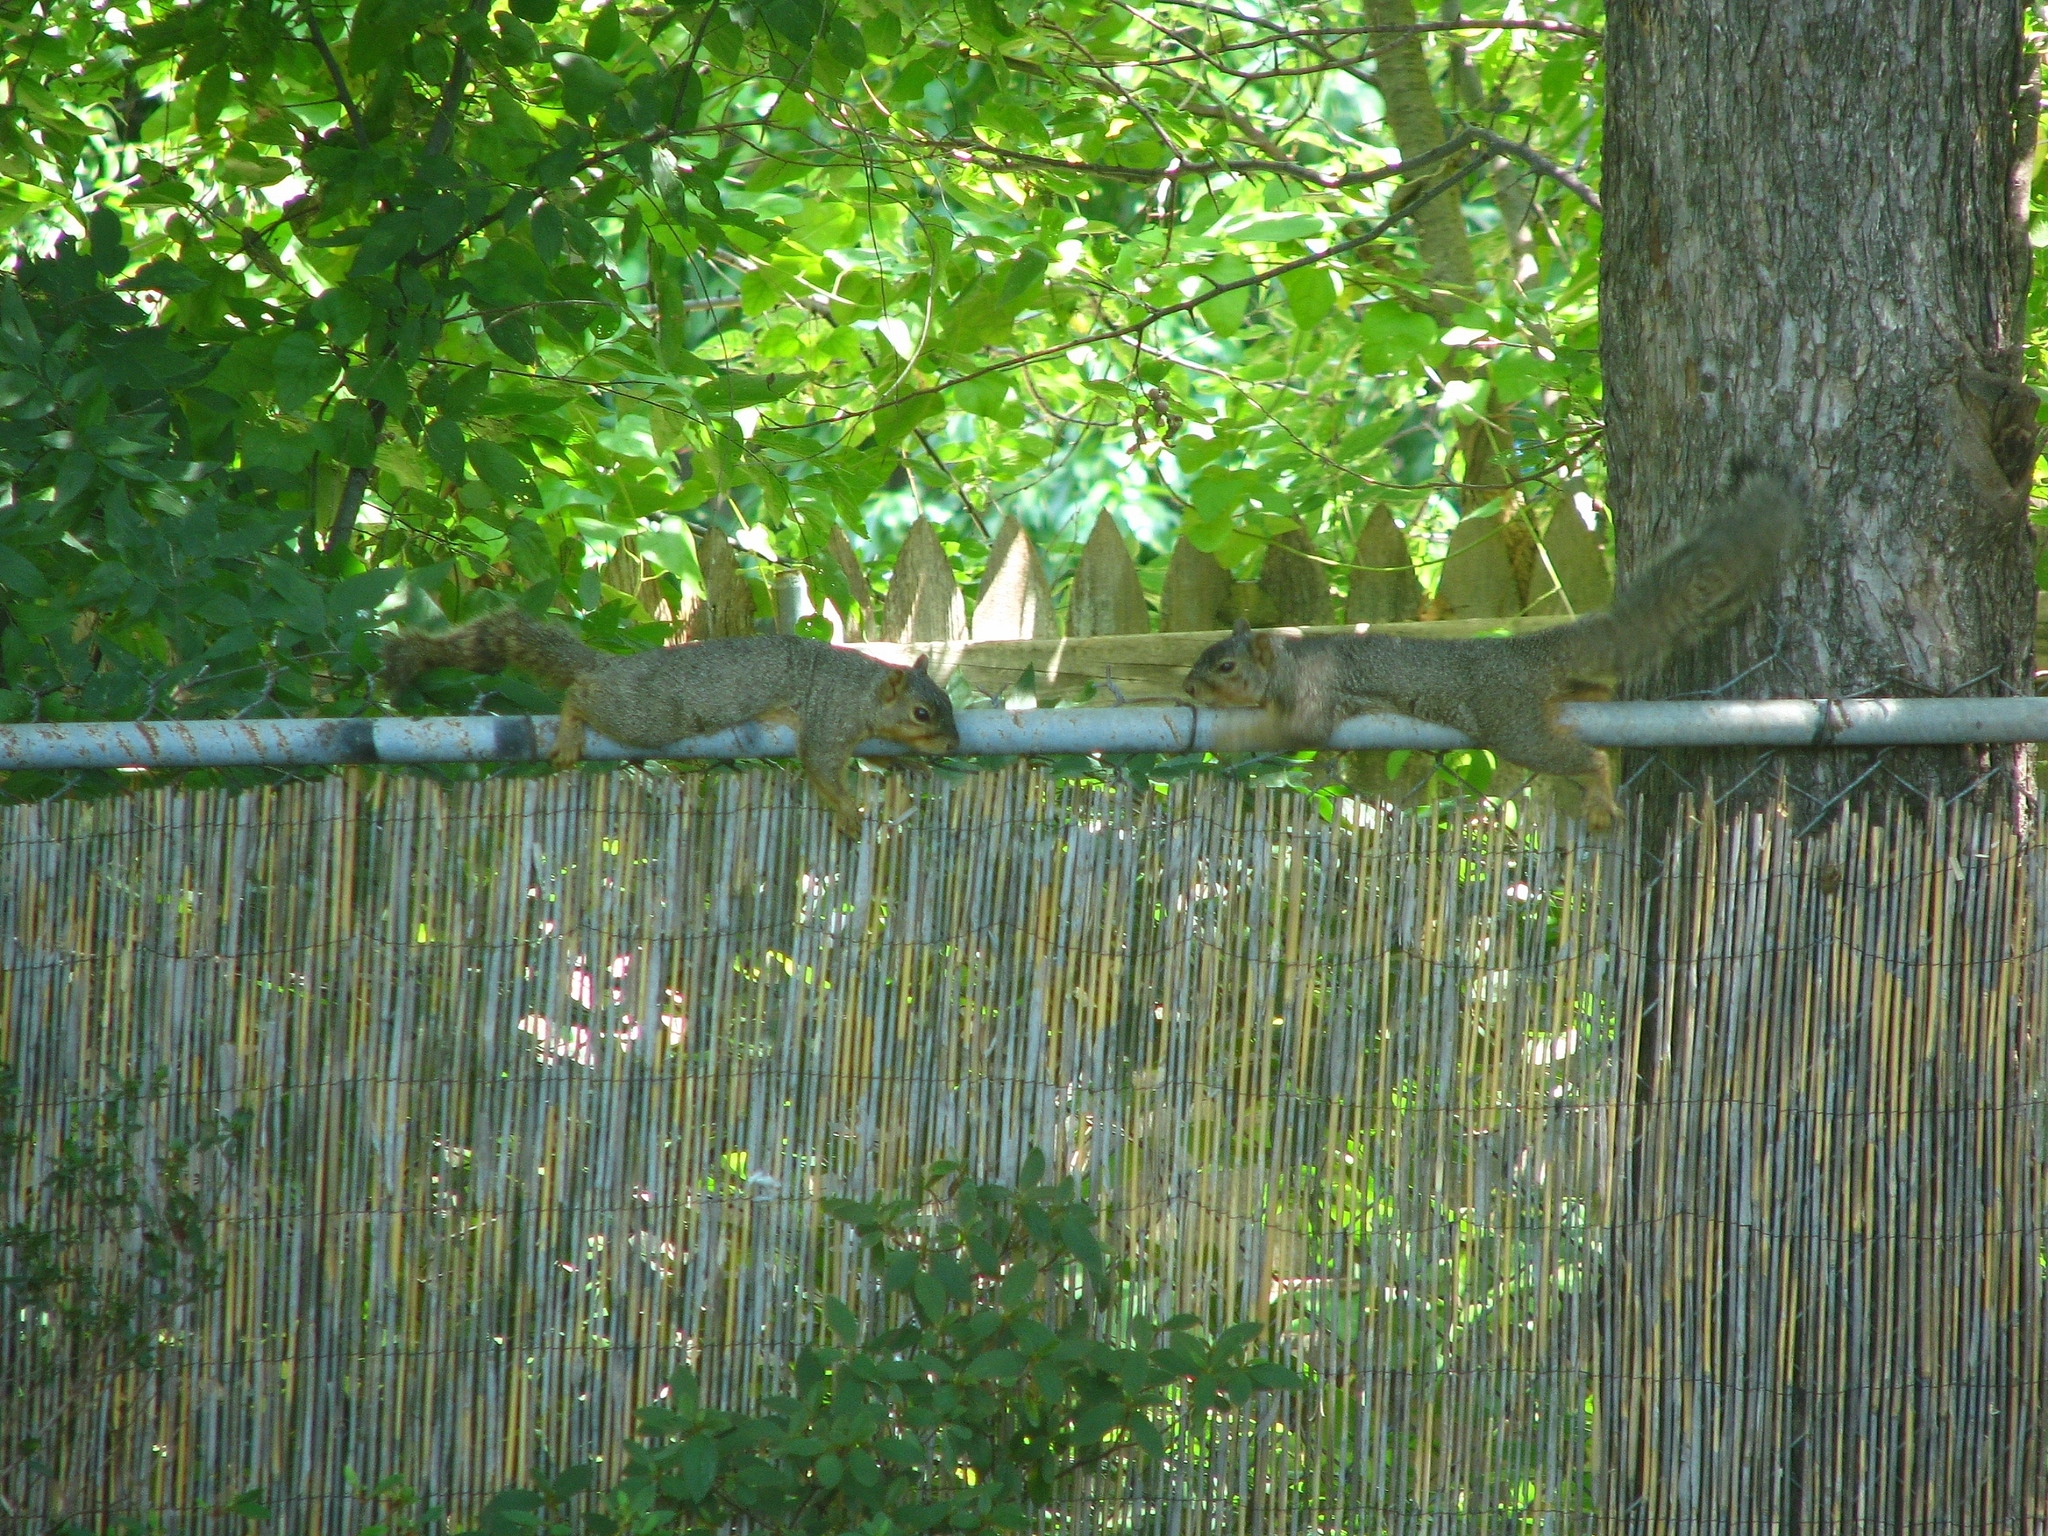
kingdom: Animalia
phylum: Chordata
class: Mammalia
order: Rodentia
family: Sciuridae
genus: Sciurus
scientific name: Sciurus niger
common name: Fox squirrel
